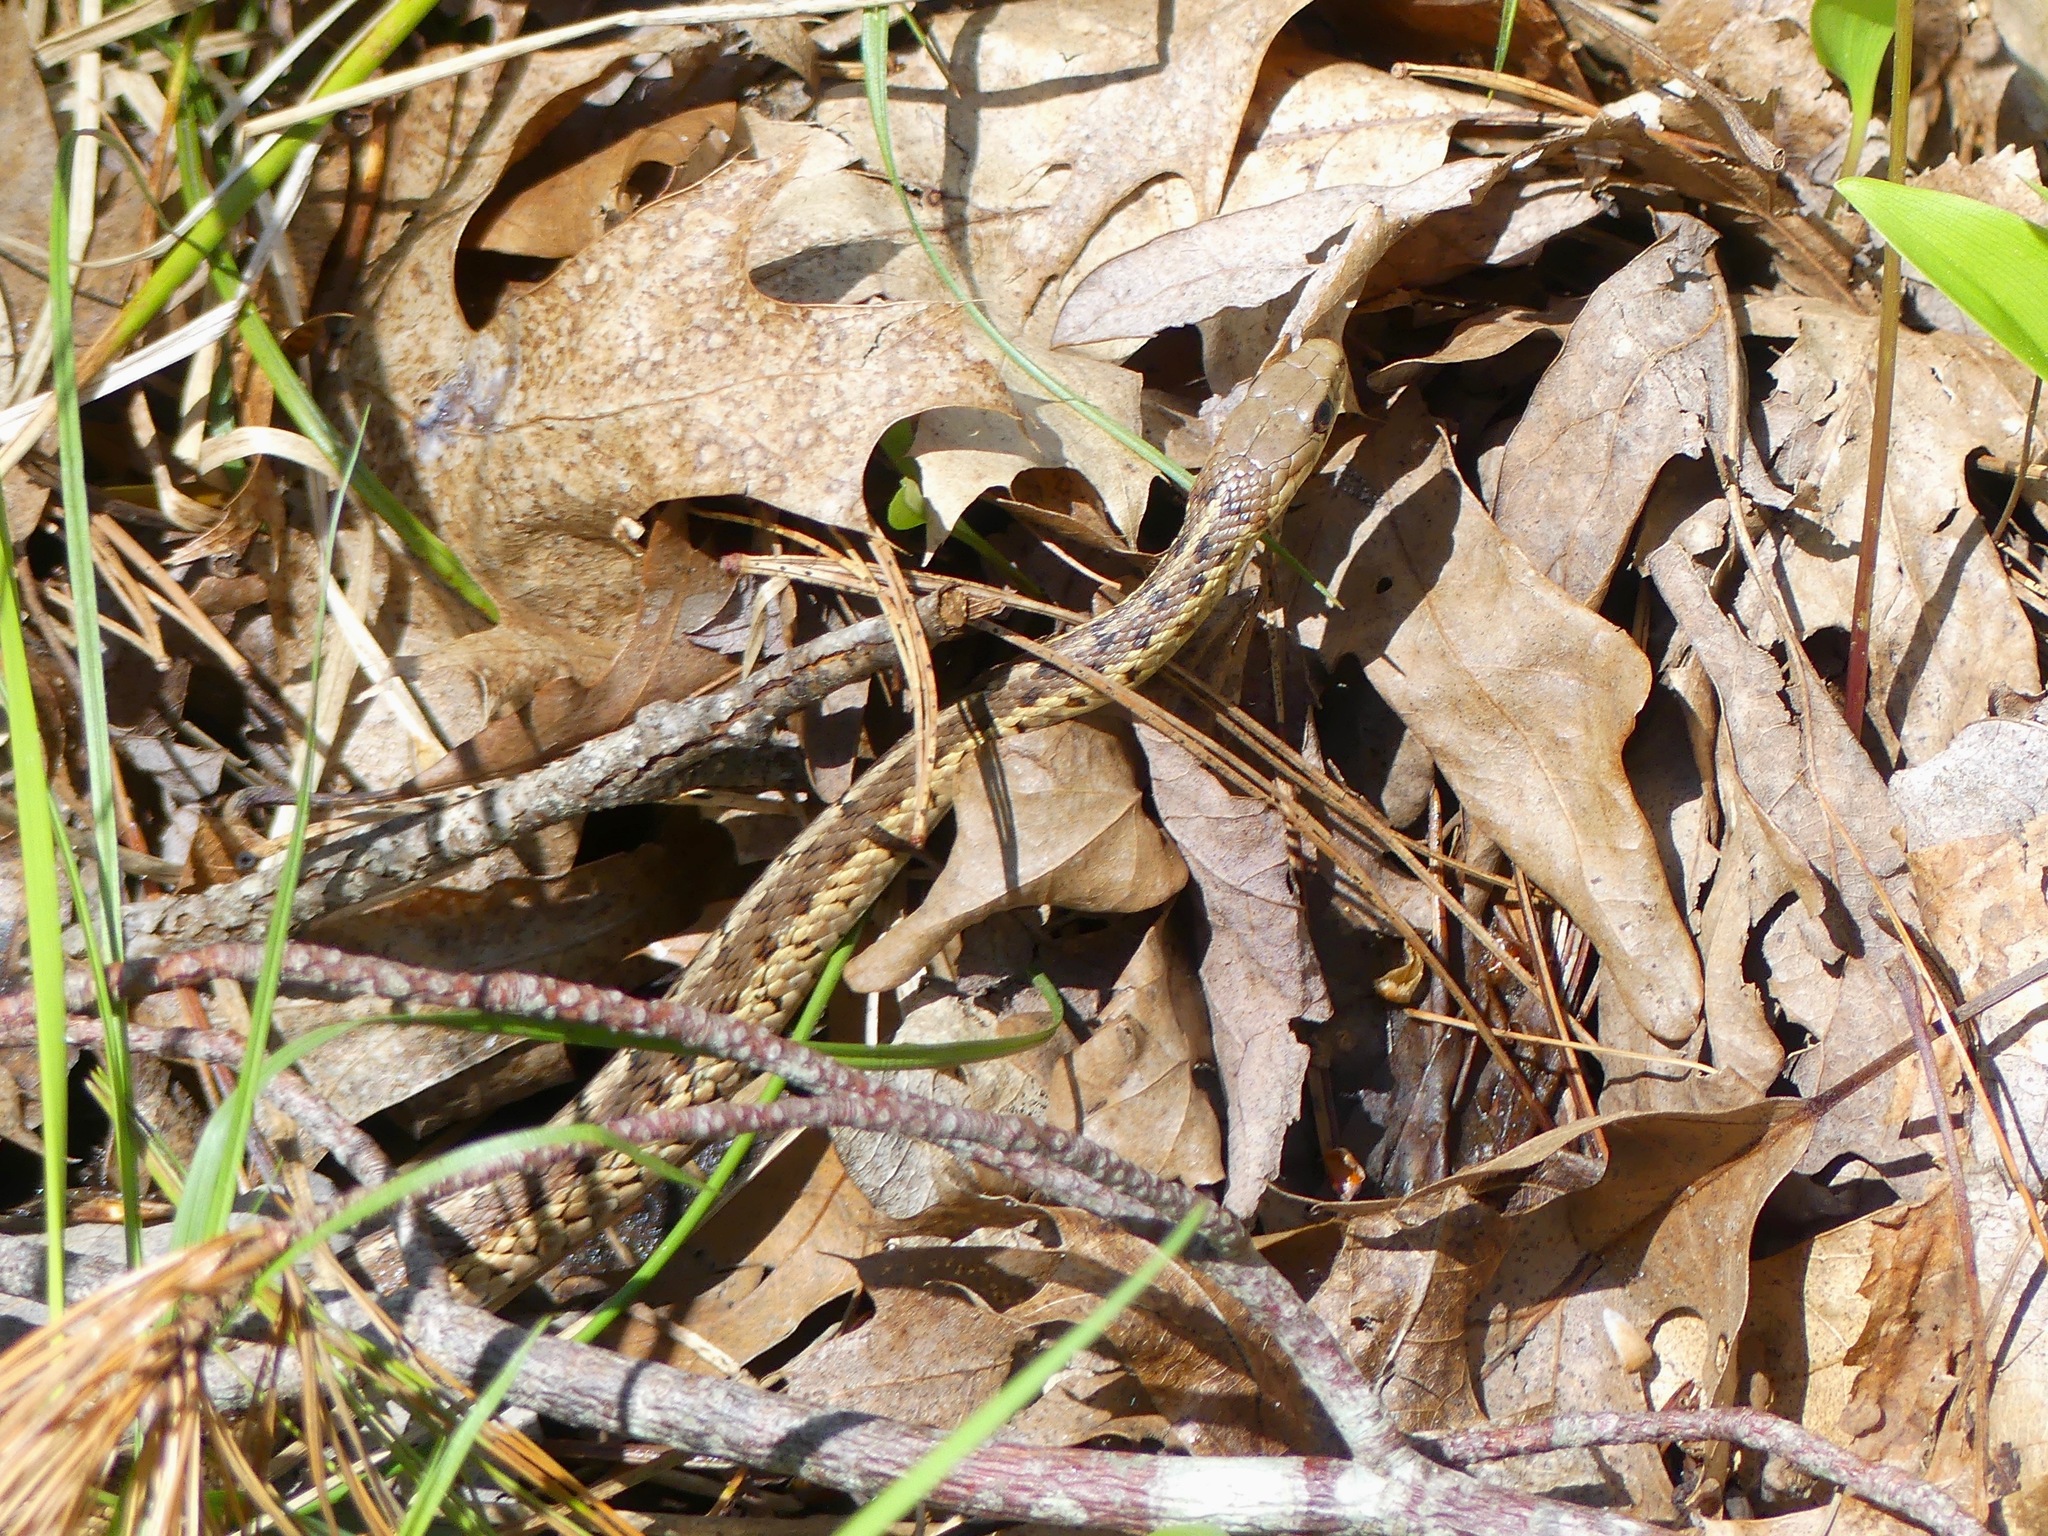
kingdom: Animalia
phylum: Chordata
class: Squamata
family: Colubridae
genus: Thamnophis
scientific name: Thamnophis sirtalis
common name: Common garter snake
